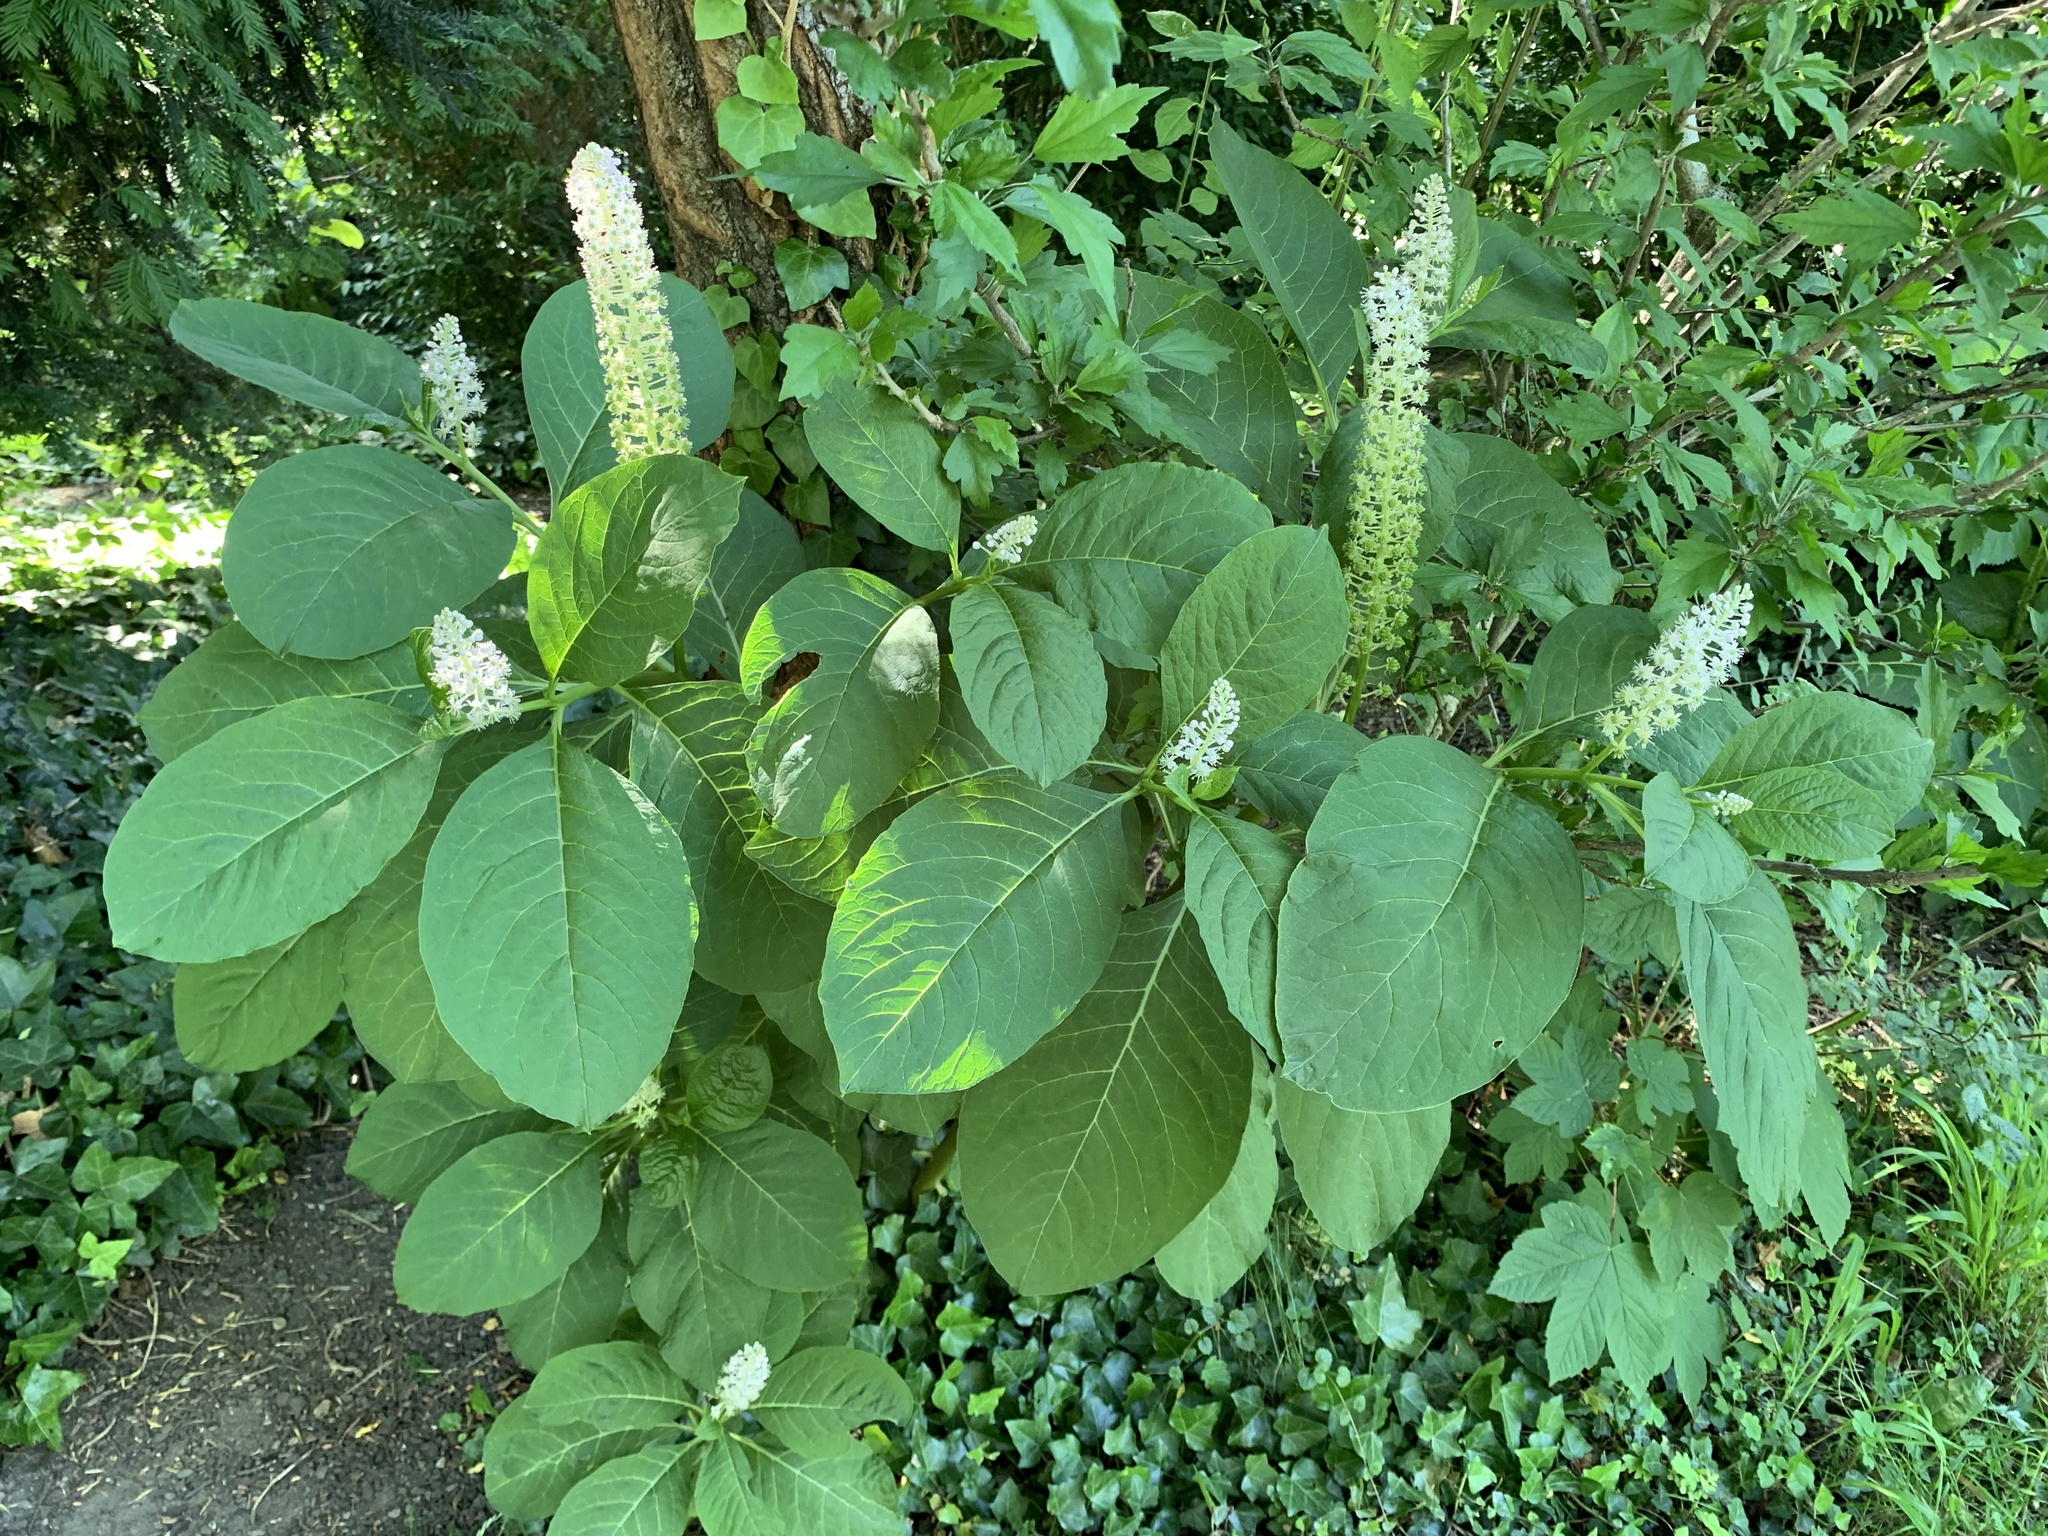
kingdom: Plantae
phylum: Tracheophyta
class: Magnoliopsida
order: Caryophyllales
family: Phytolaccaceae
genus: Phytolacca
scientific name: Phytolacca acinosa
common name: Indian pokeweed
